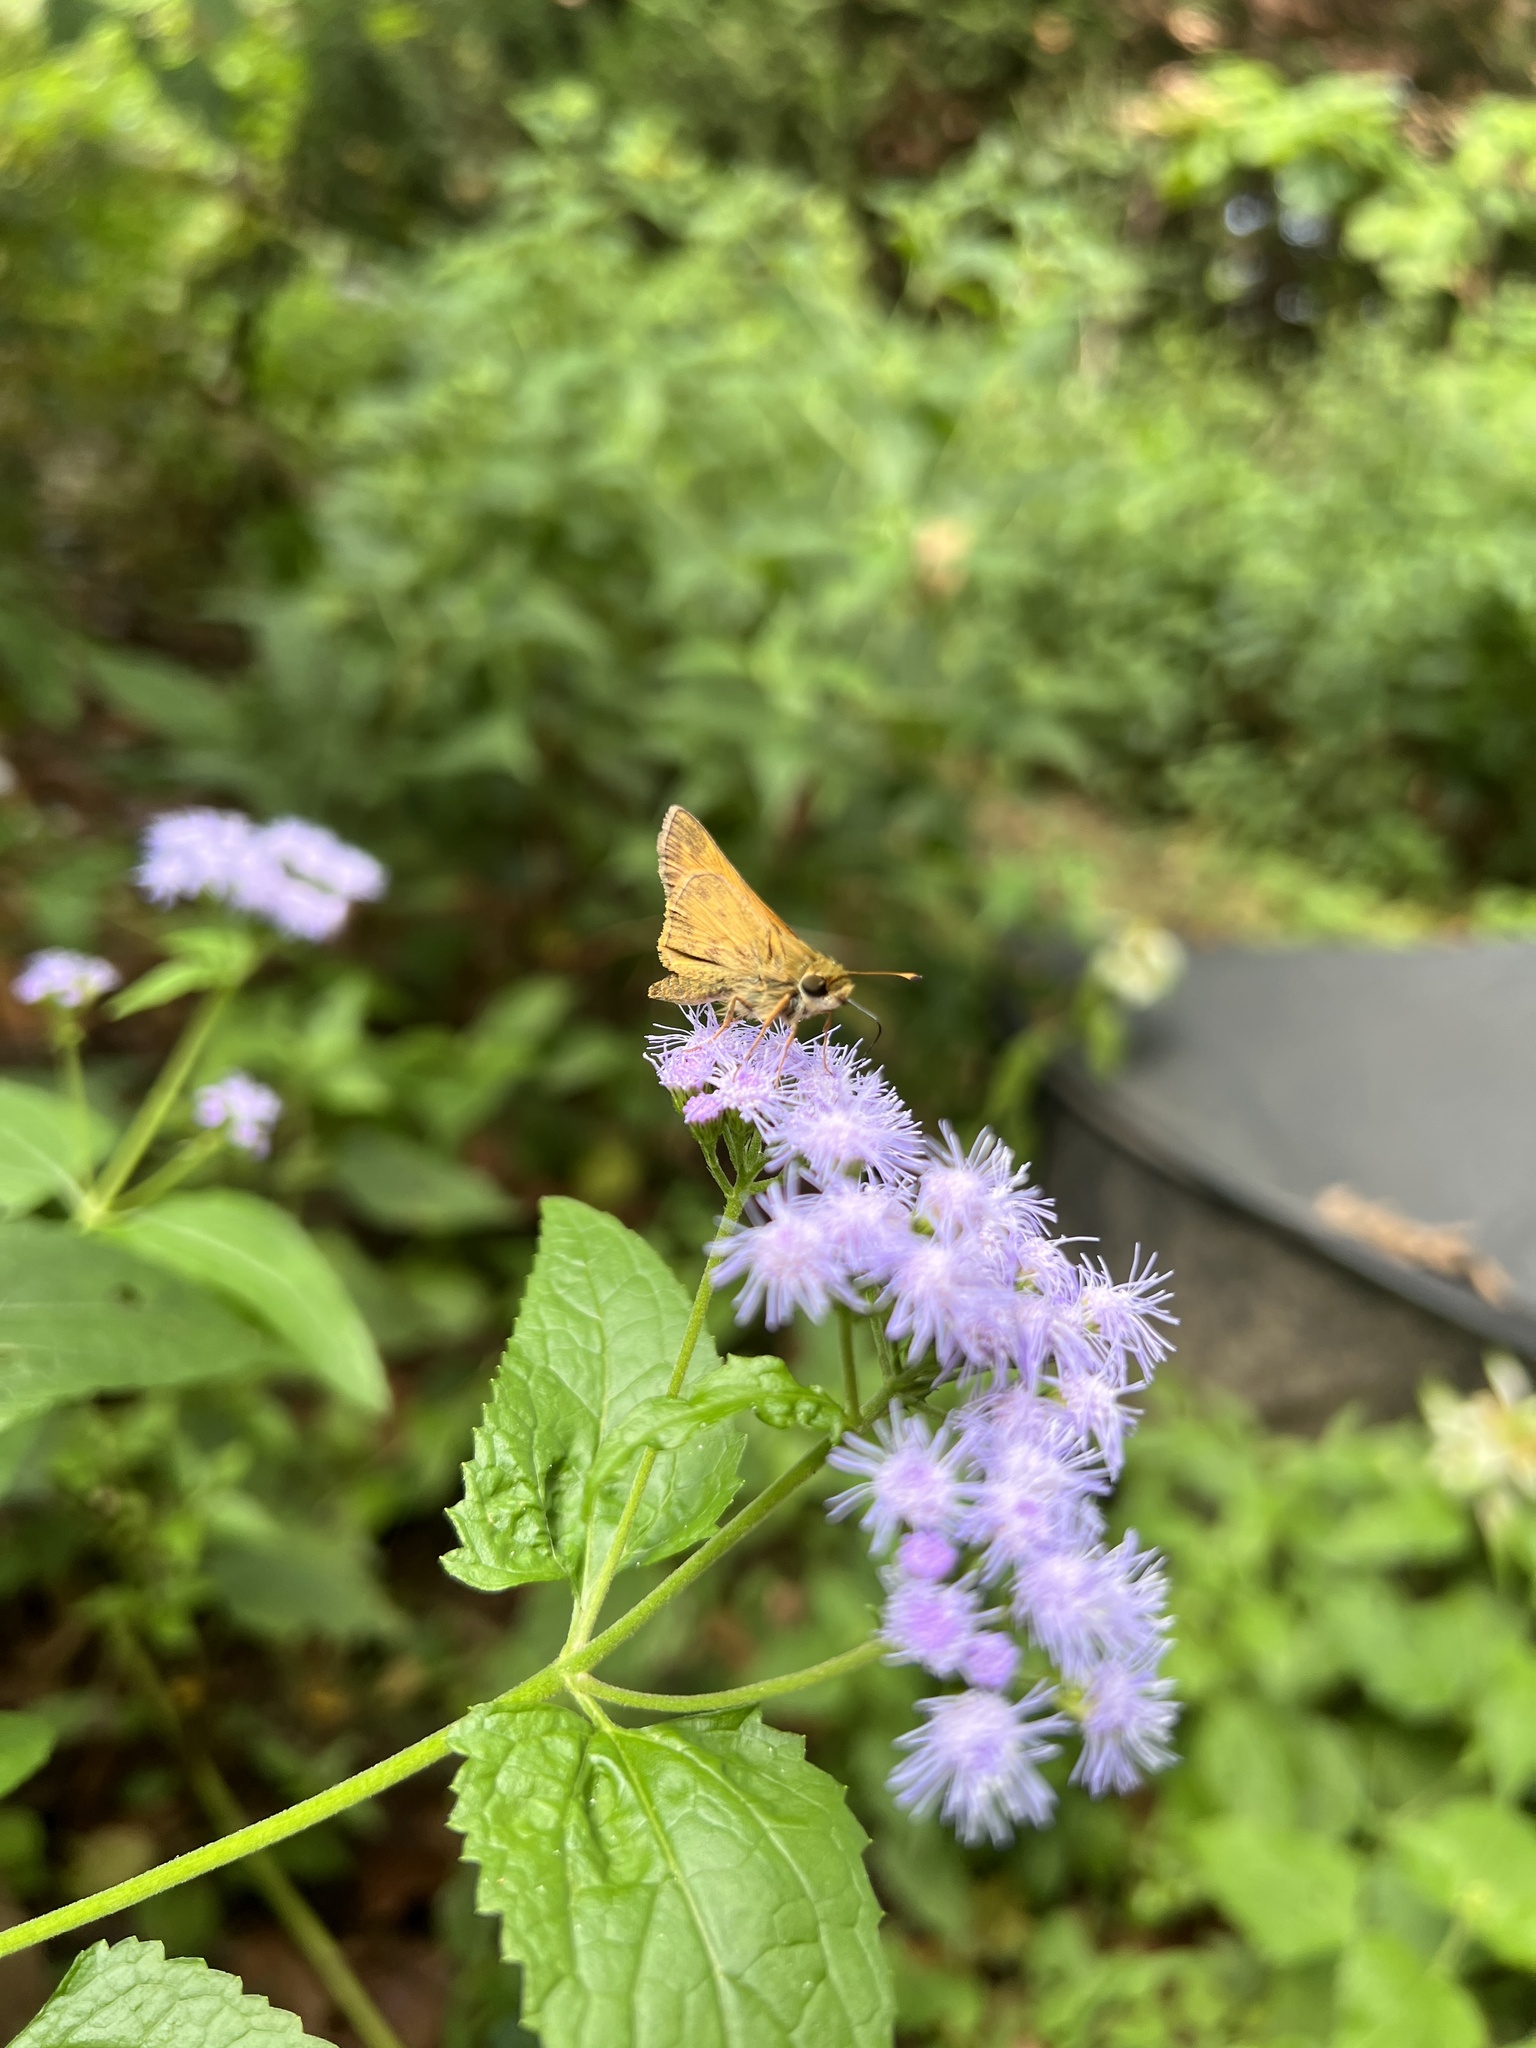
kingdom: Animalia
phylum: Arthropoda
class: Insecta
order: Lepidoptera
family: Hesperiidae
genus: Atalopedes
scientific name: Atalopedes
